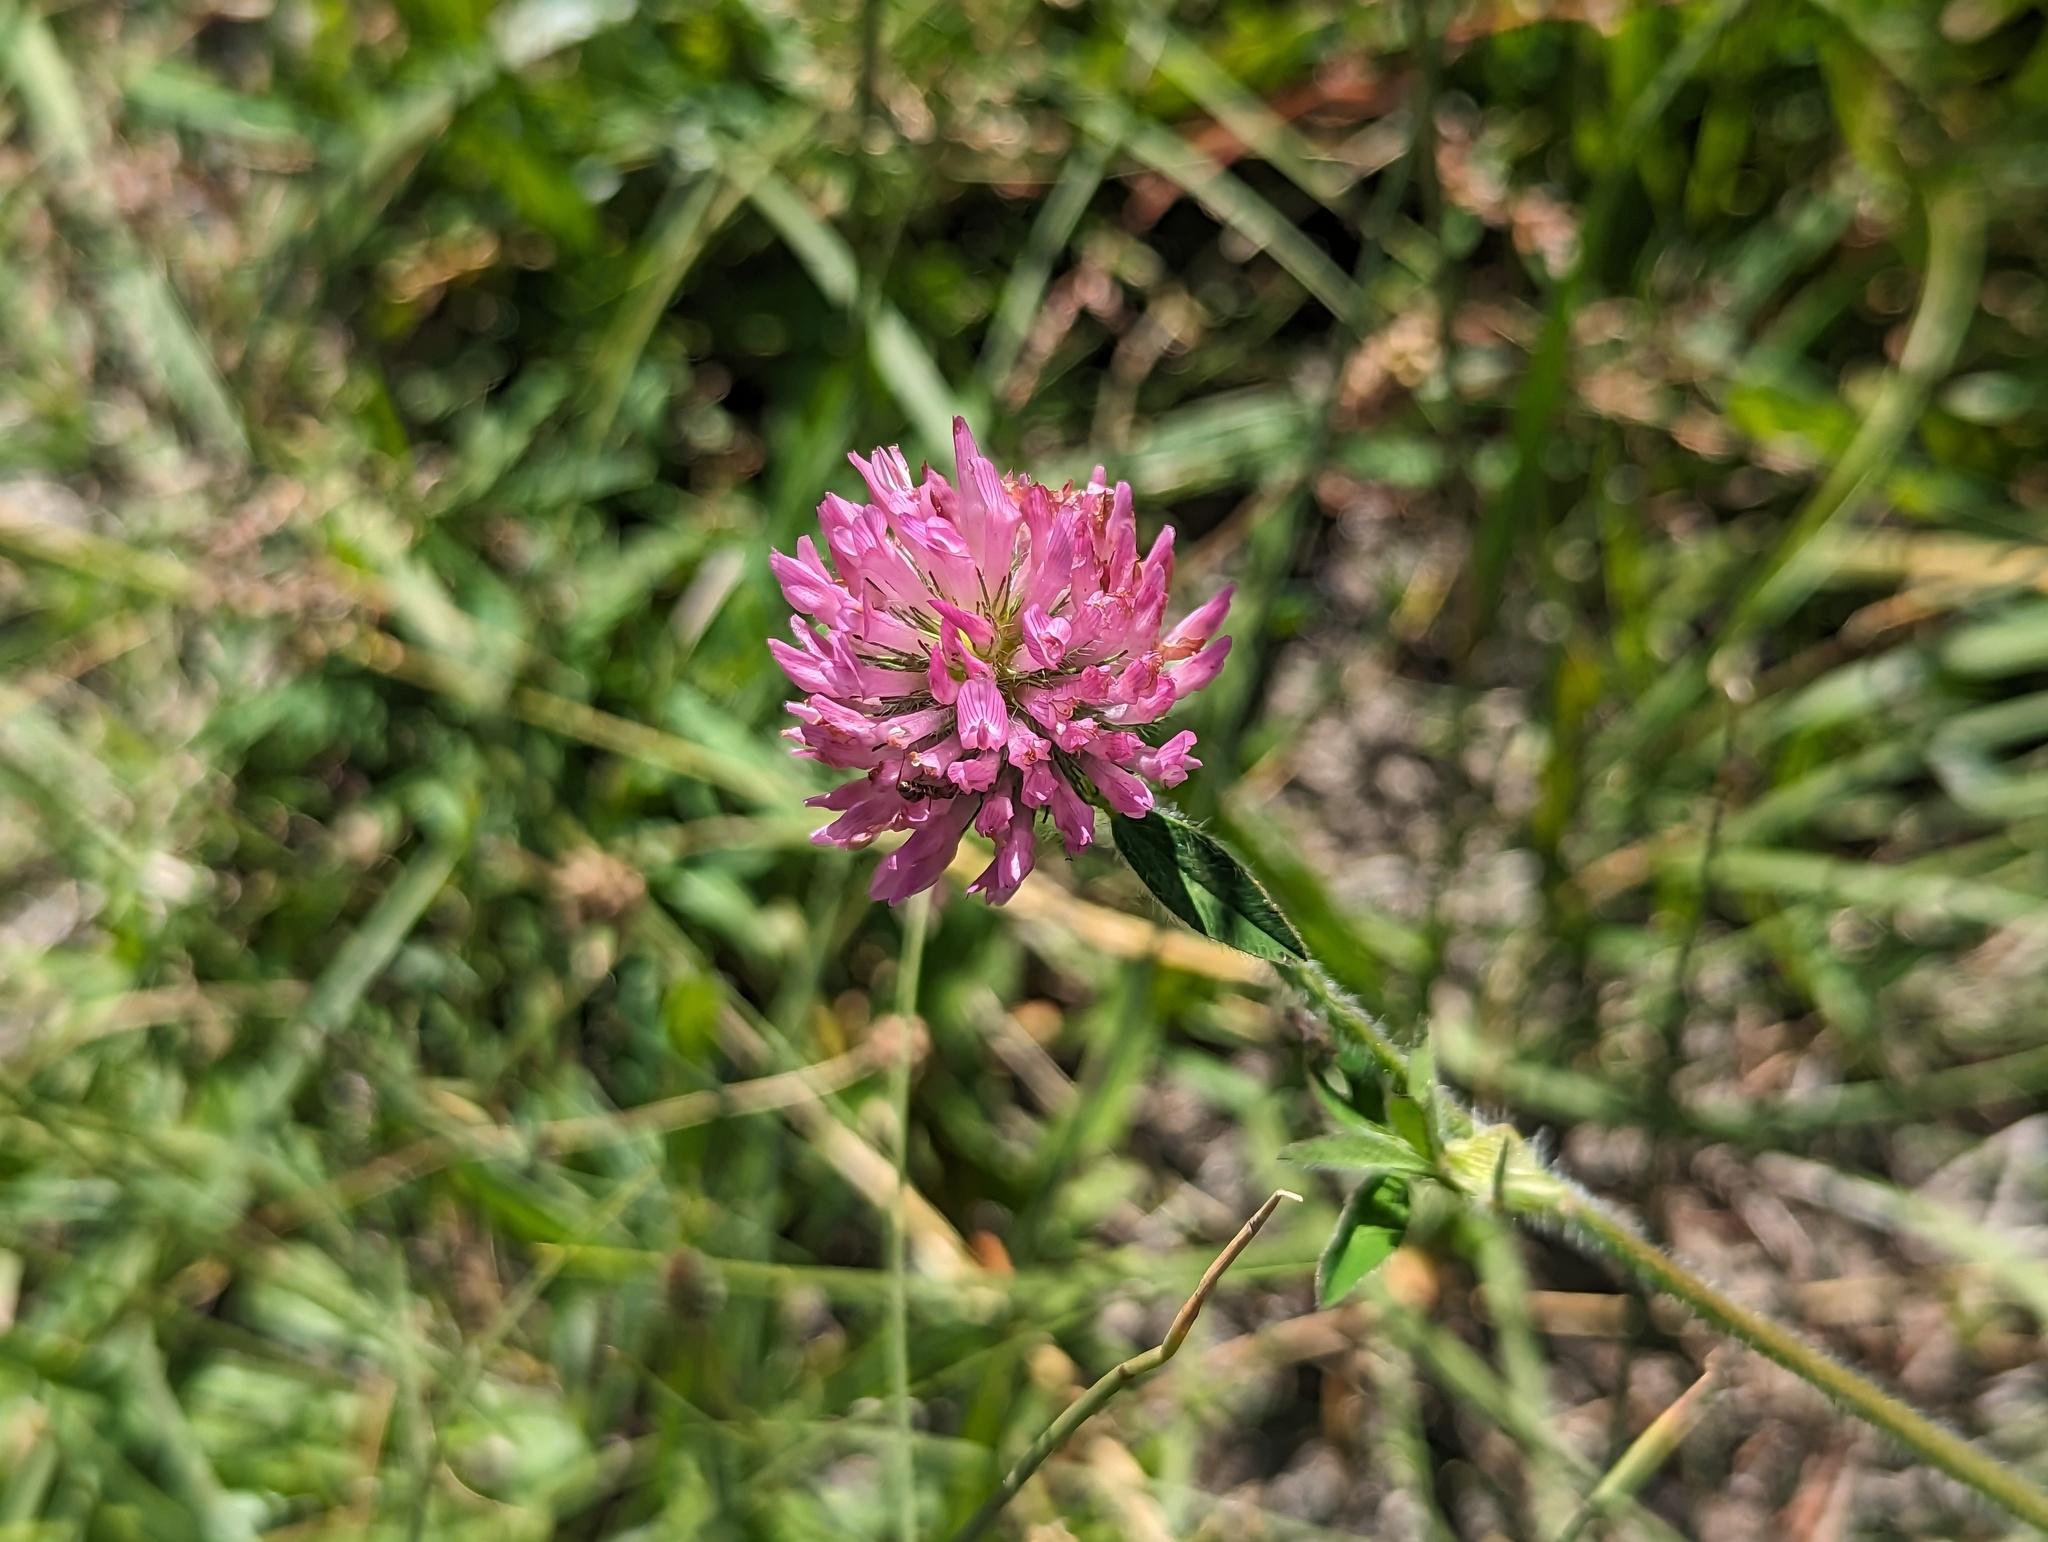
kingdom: Plantae
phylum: Tracheophyta
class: Magnoliopsida
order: Fabales
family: Fabaceae
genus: Trifolium
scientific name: Trifolium pratense
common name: Red clover
